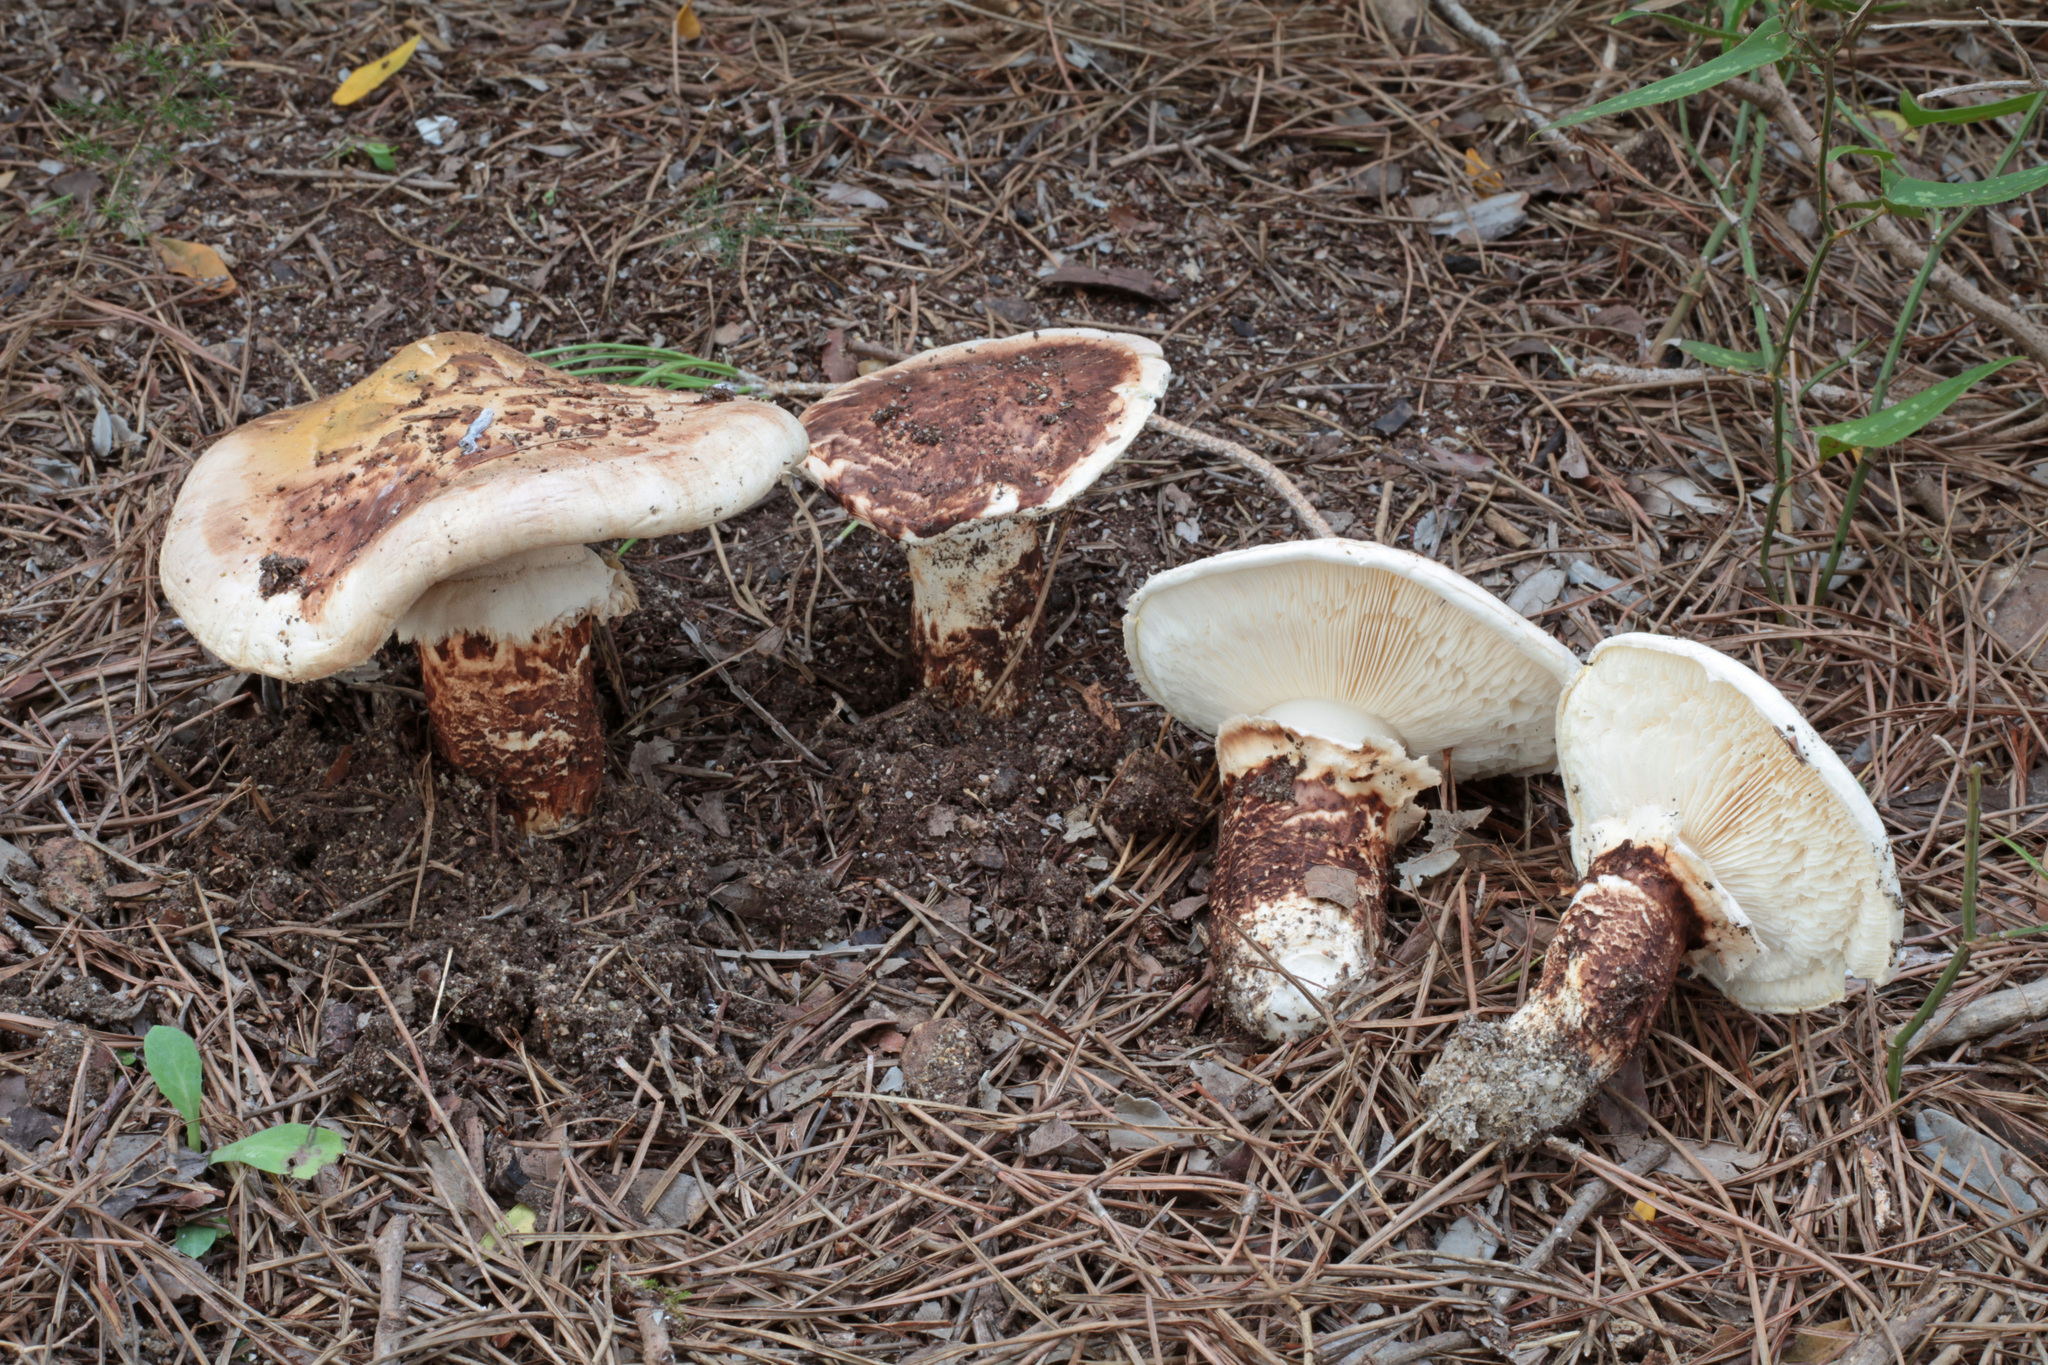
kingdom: Fungi
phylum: Basidiomycota
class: Agaricomycetes
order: Agaricales
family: Tricholomataceae
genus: Tricholoma
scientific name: Tricholoma caligatum
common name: True booted knight
